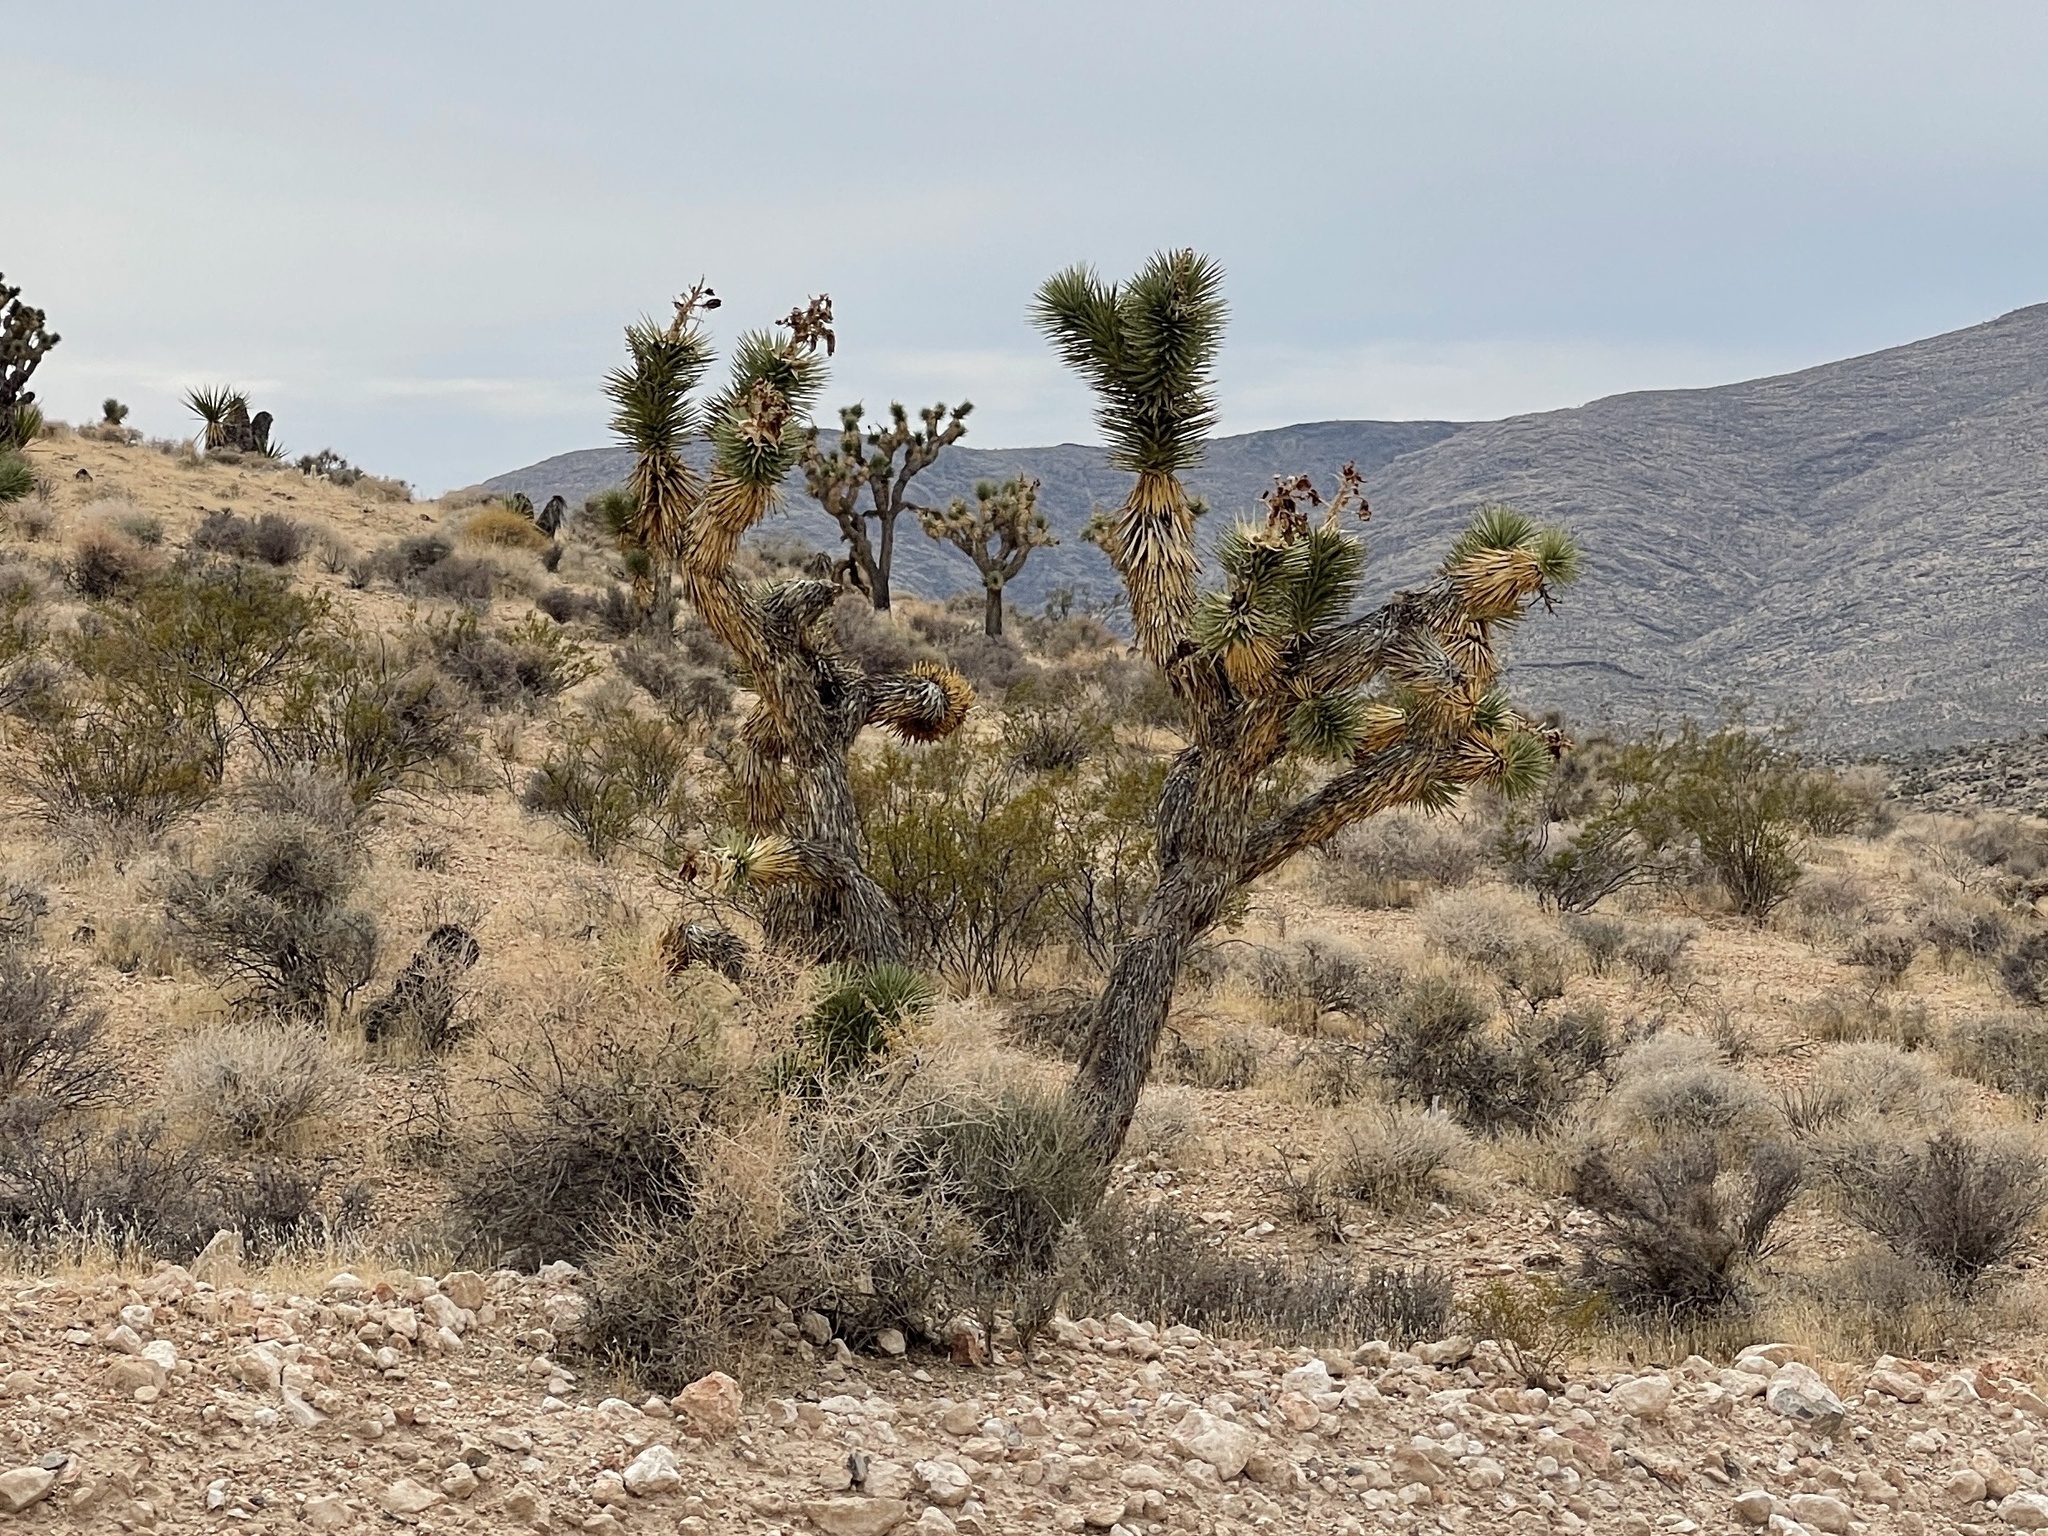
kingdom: Plantae
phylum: Tracheophyta
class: Liliopsida
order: Asparagales
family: Asparagaceae
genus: Yucca
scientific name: Yucca brevifolia
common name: Joshua tree
